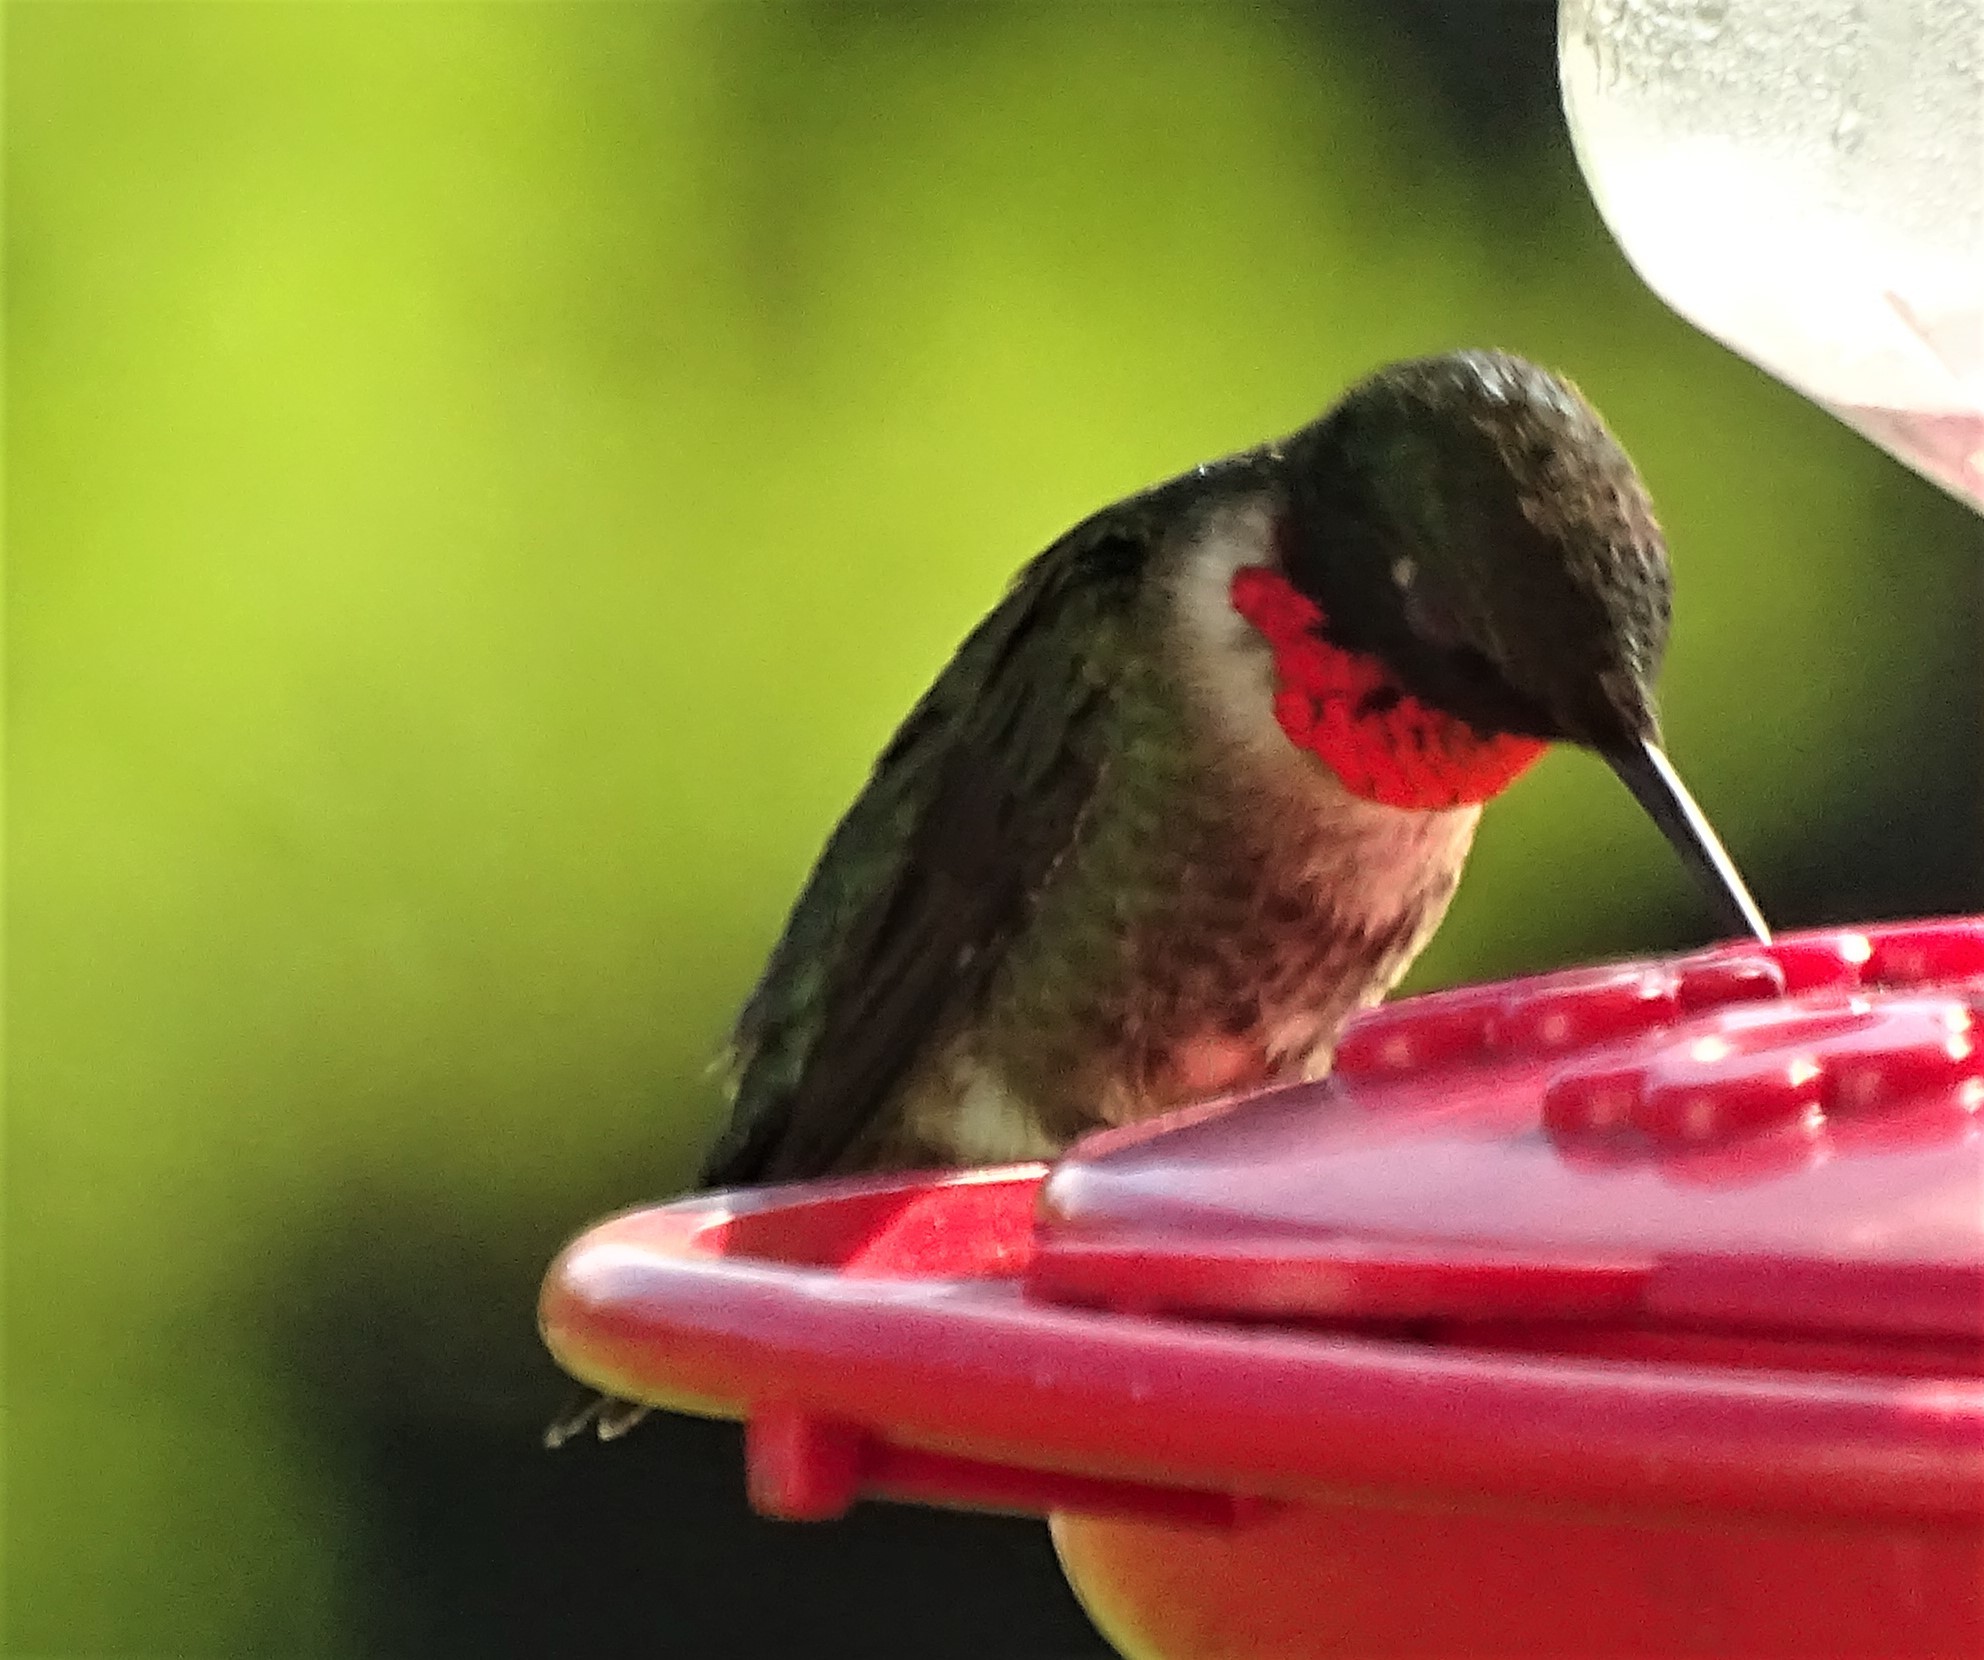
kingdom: Animalia
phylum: Chordata
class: Aves
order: Apodiformes
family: Trochilidae
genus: Archilochus
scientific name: Archilochus colubris
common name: Ruby-throated hummingbird
